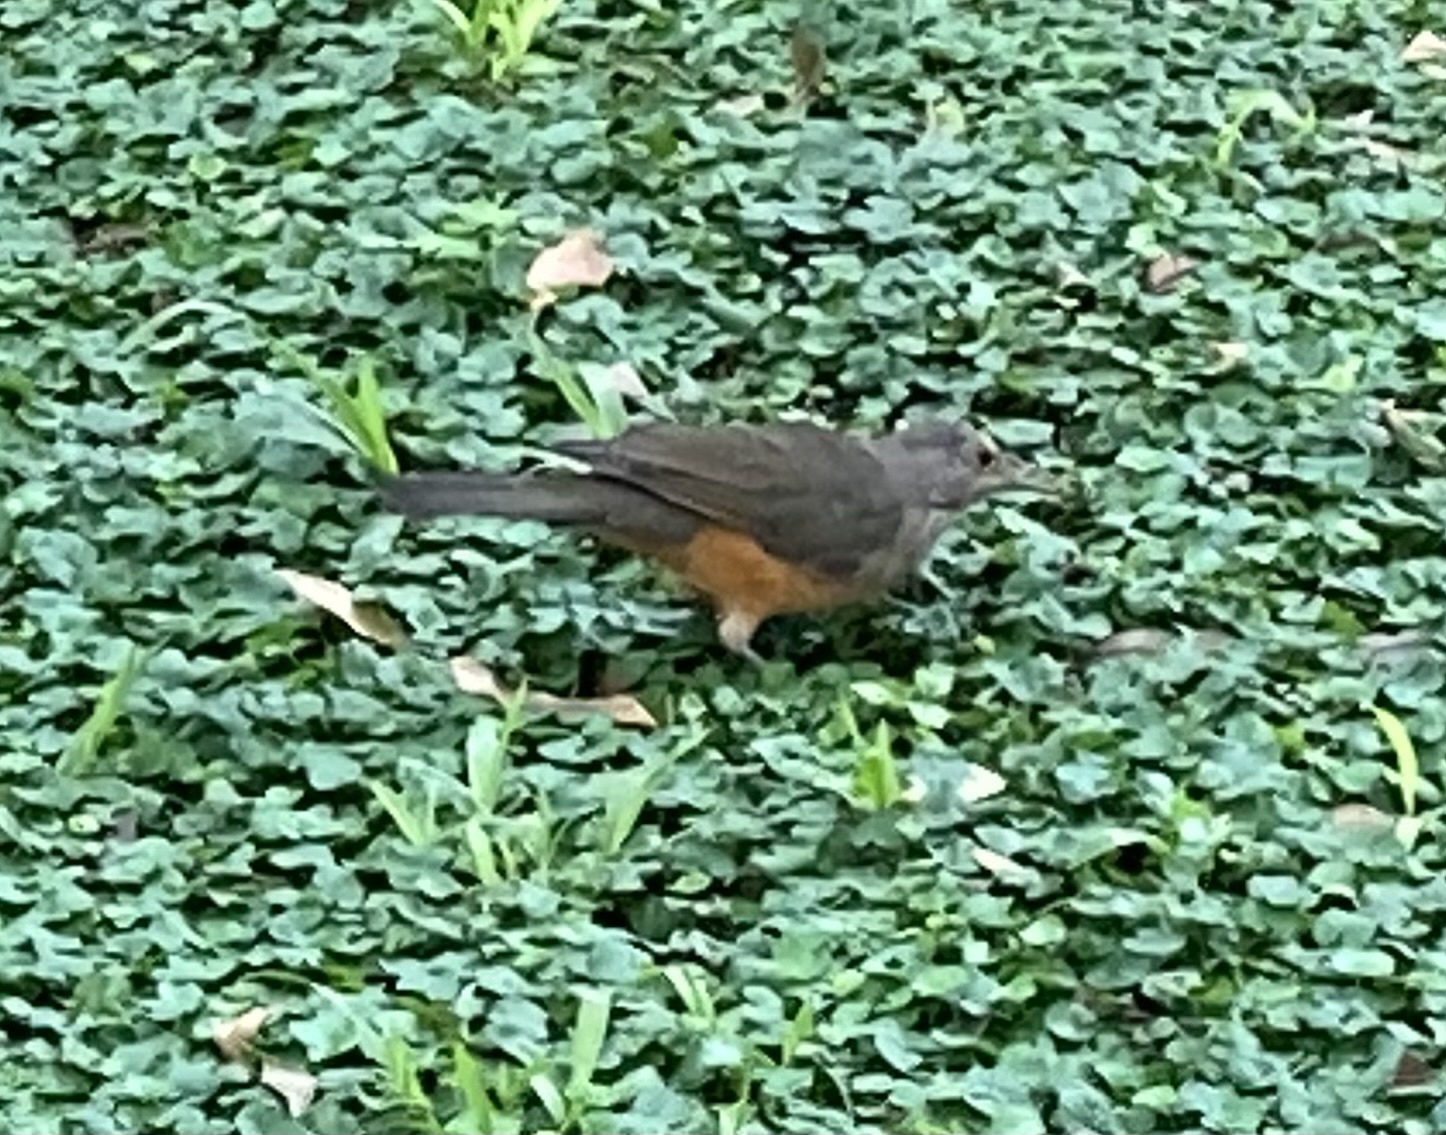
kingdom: Animalia
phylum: Chordata
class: Aves
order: Passeriformes
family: Turdidae
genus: Turdus
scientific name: Turdus rufiventris
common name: Rufous-bellied thrush
